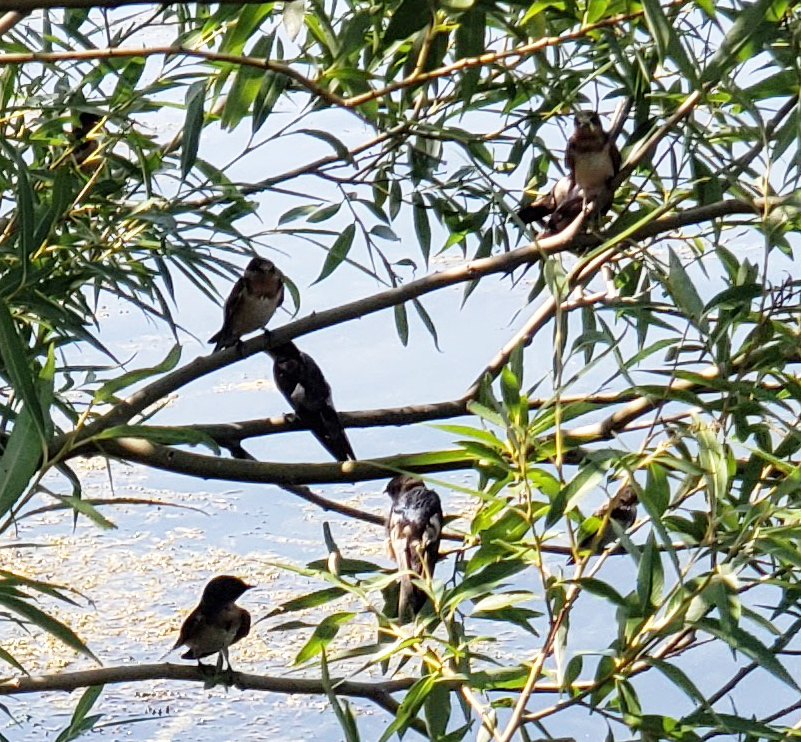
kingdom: Animalia
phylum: Chordata
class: Aves
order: Passeriformes
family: Hirundinidae
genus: Petrochelidon
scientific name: Petrochelidon pyrrhonota
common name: American cliff swallow
